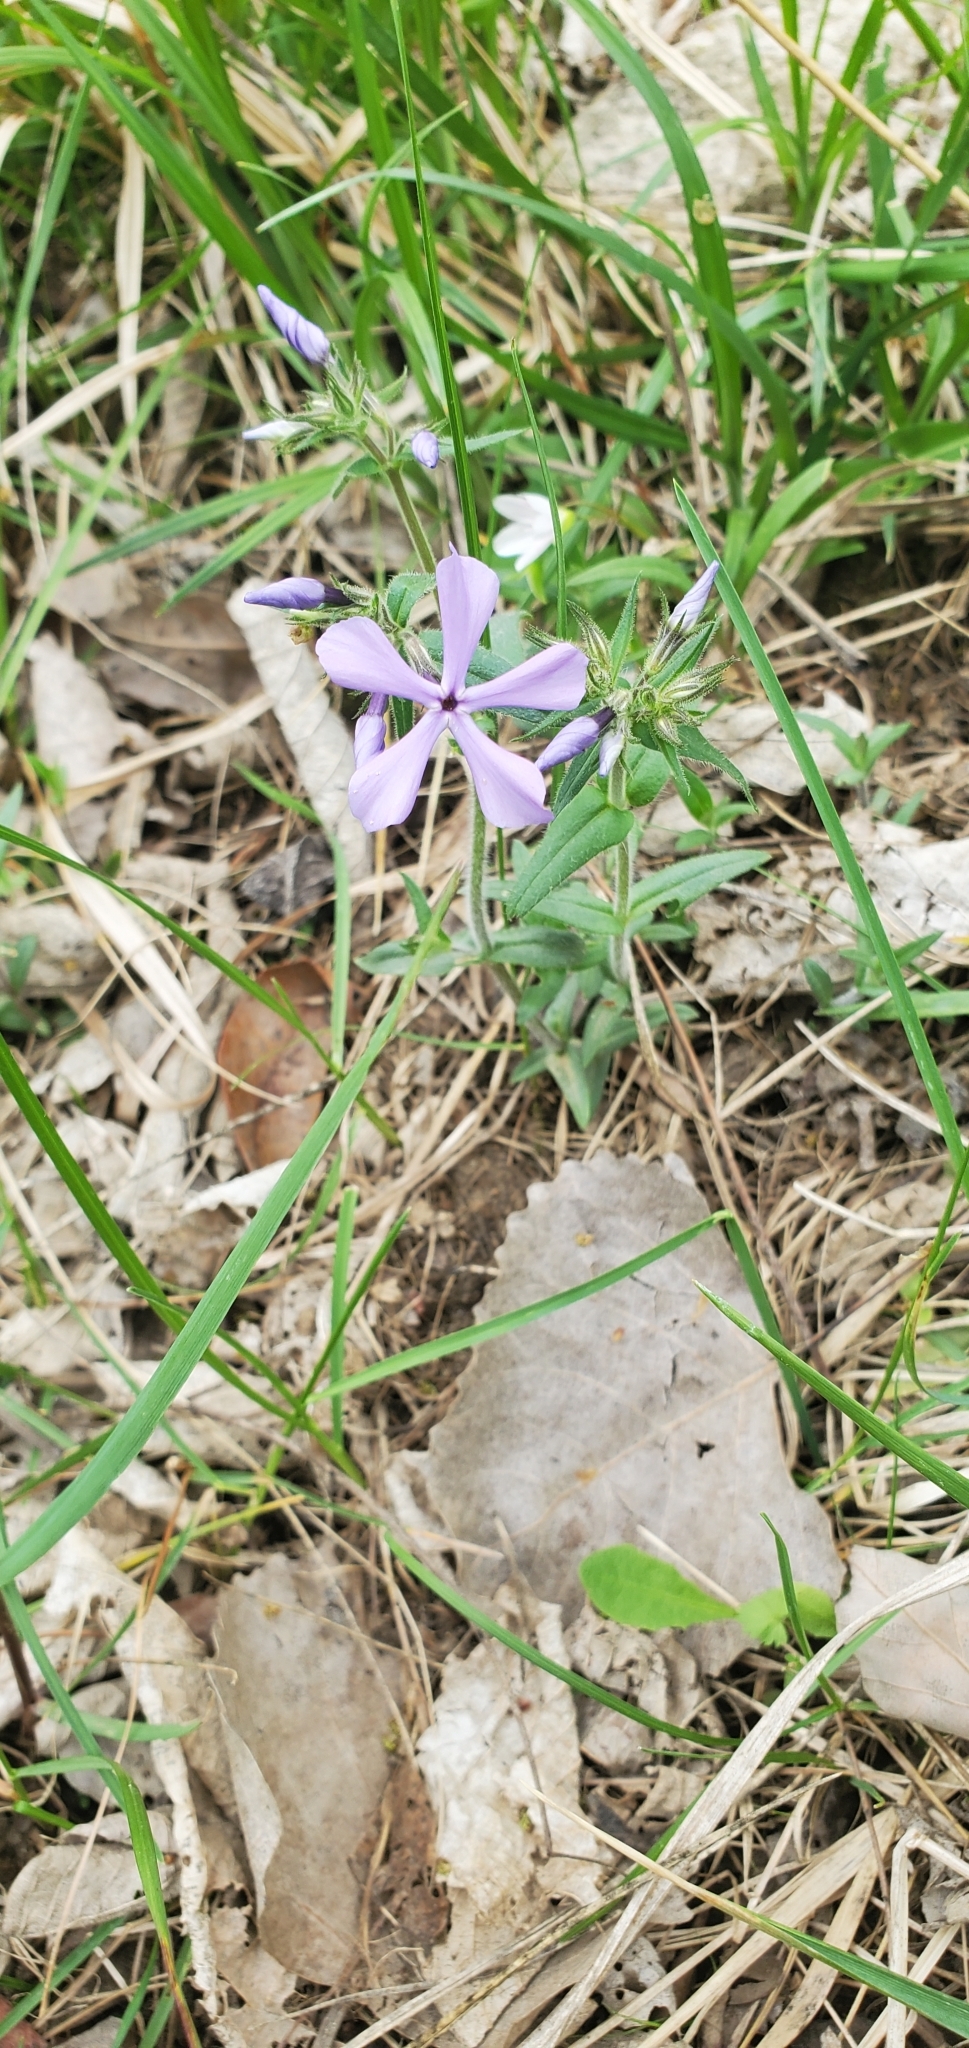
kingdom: Plantae
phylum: Tracheophyta
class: Magnoliopsida
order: Ericales
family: Polemoniaceae
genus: Phlox
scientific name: Phlox divaricata
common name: Blue phlox
